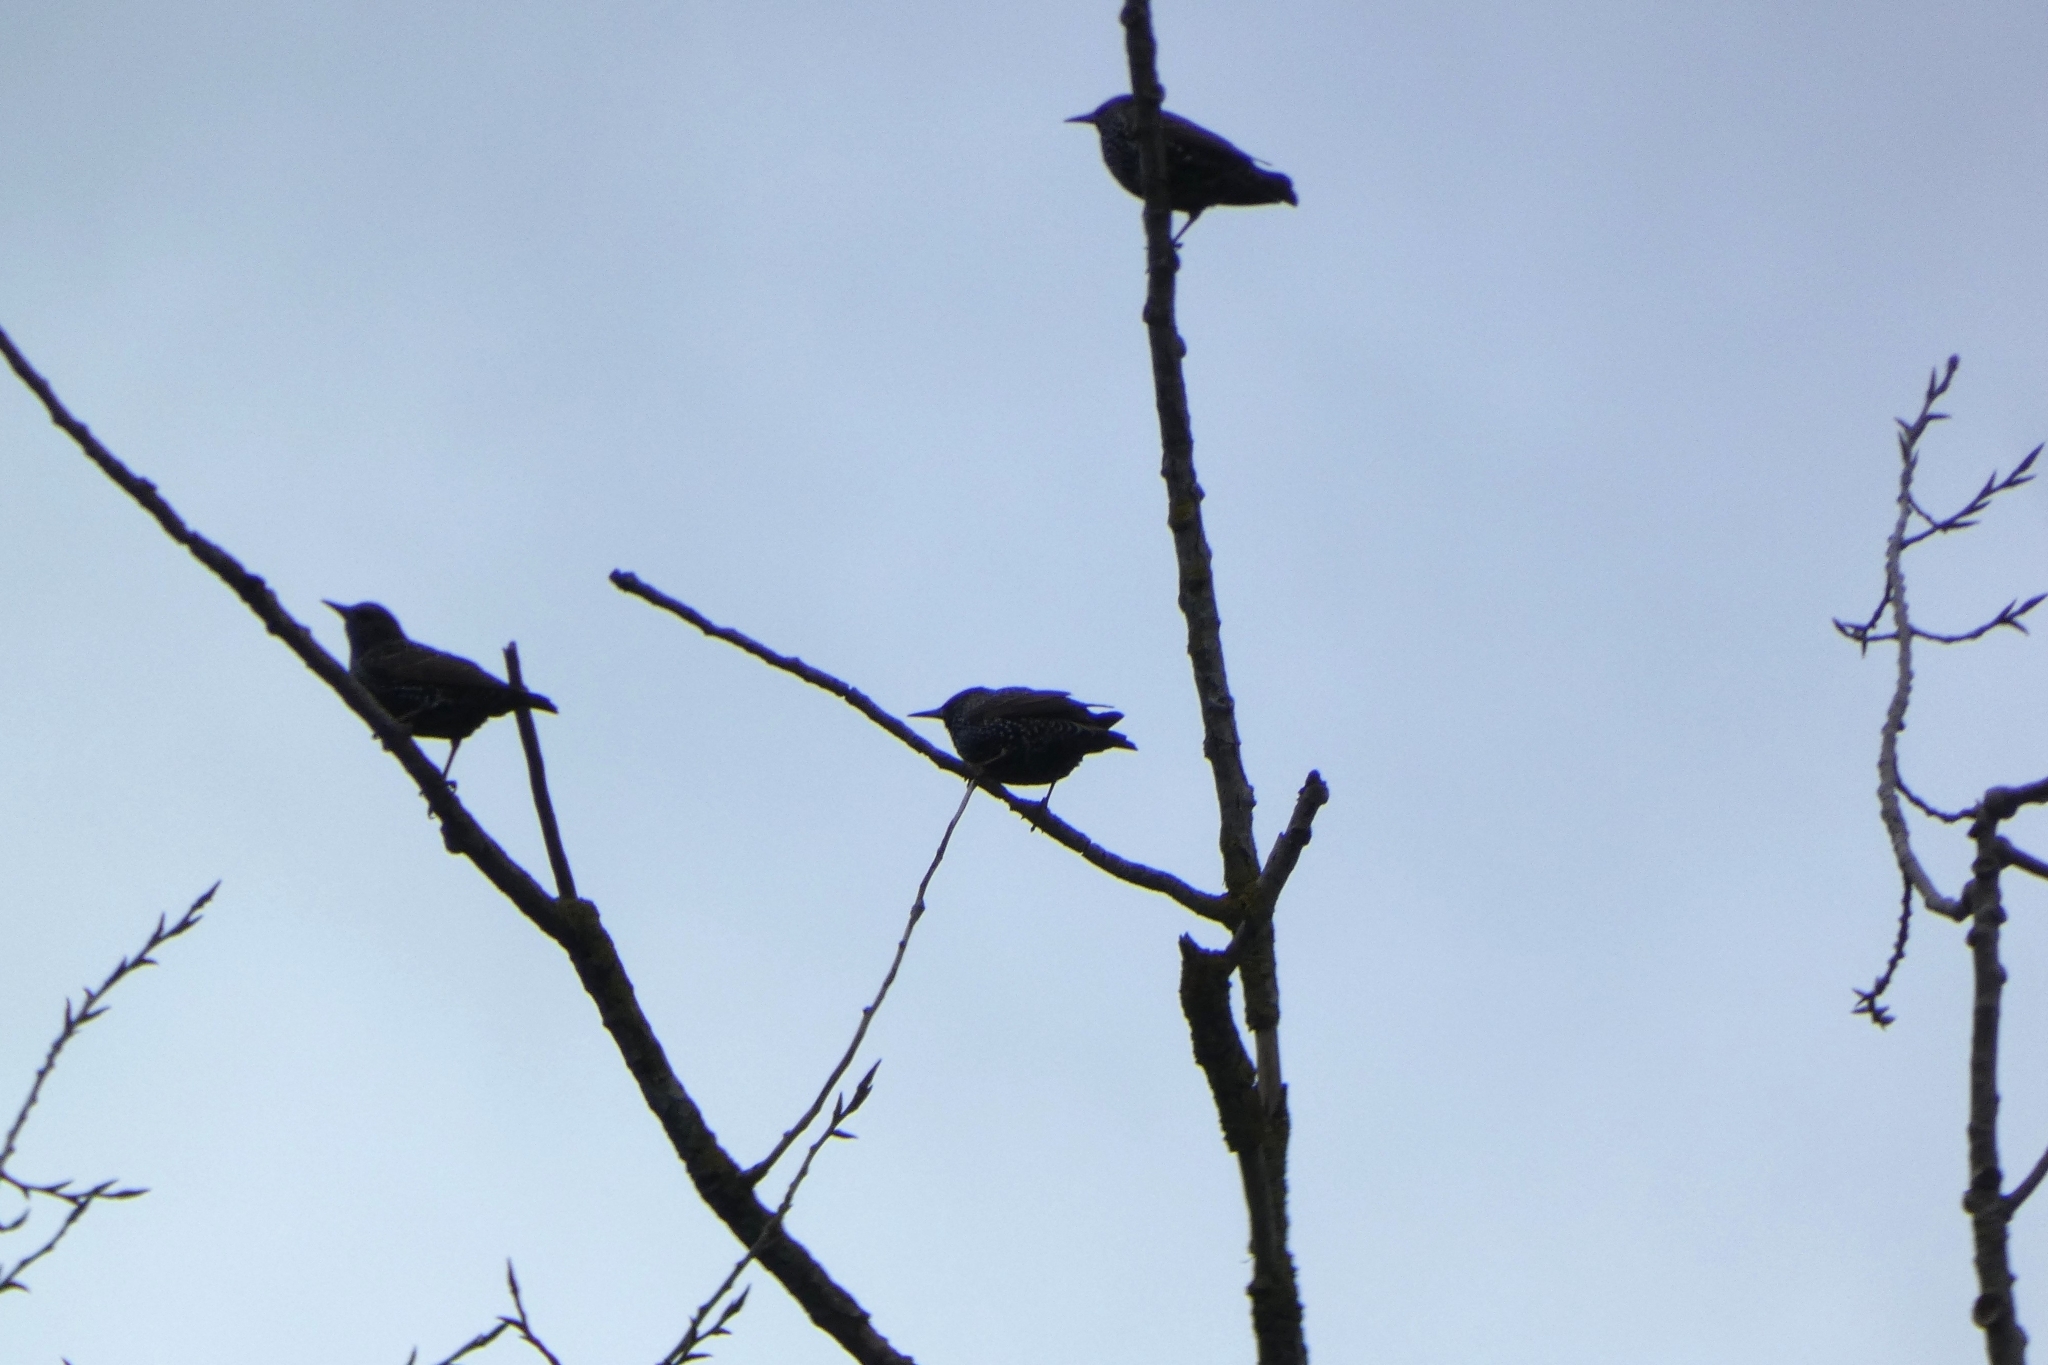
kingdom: Animalia
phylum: Chordata
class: Aves
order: Passeriformes
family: Sturnidae
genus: Sturnus
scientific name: Sturnus vulgaris
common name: Common starling
